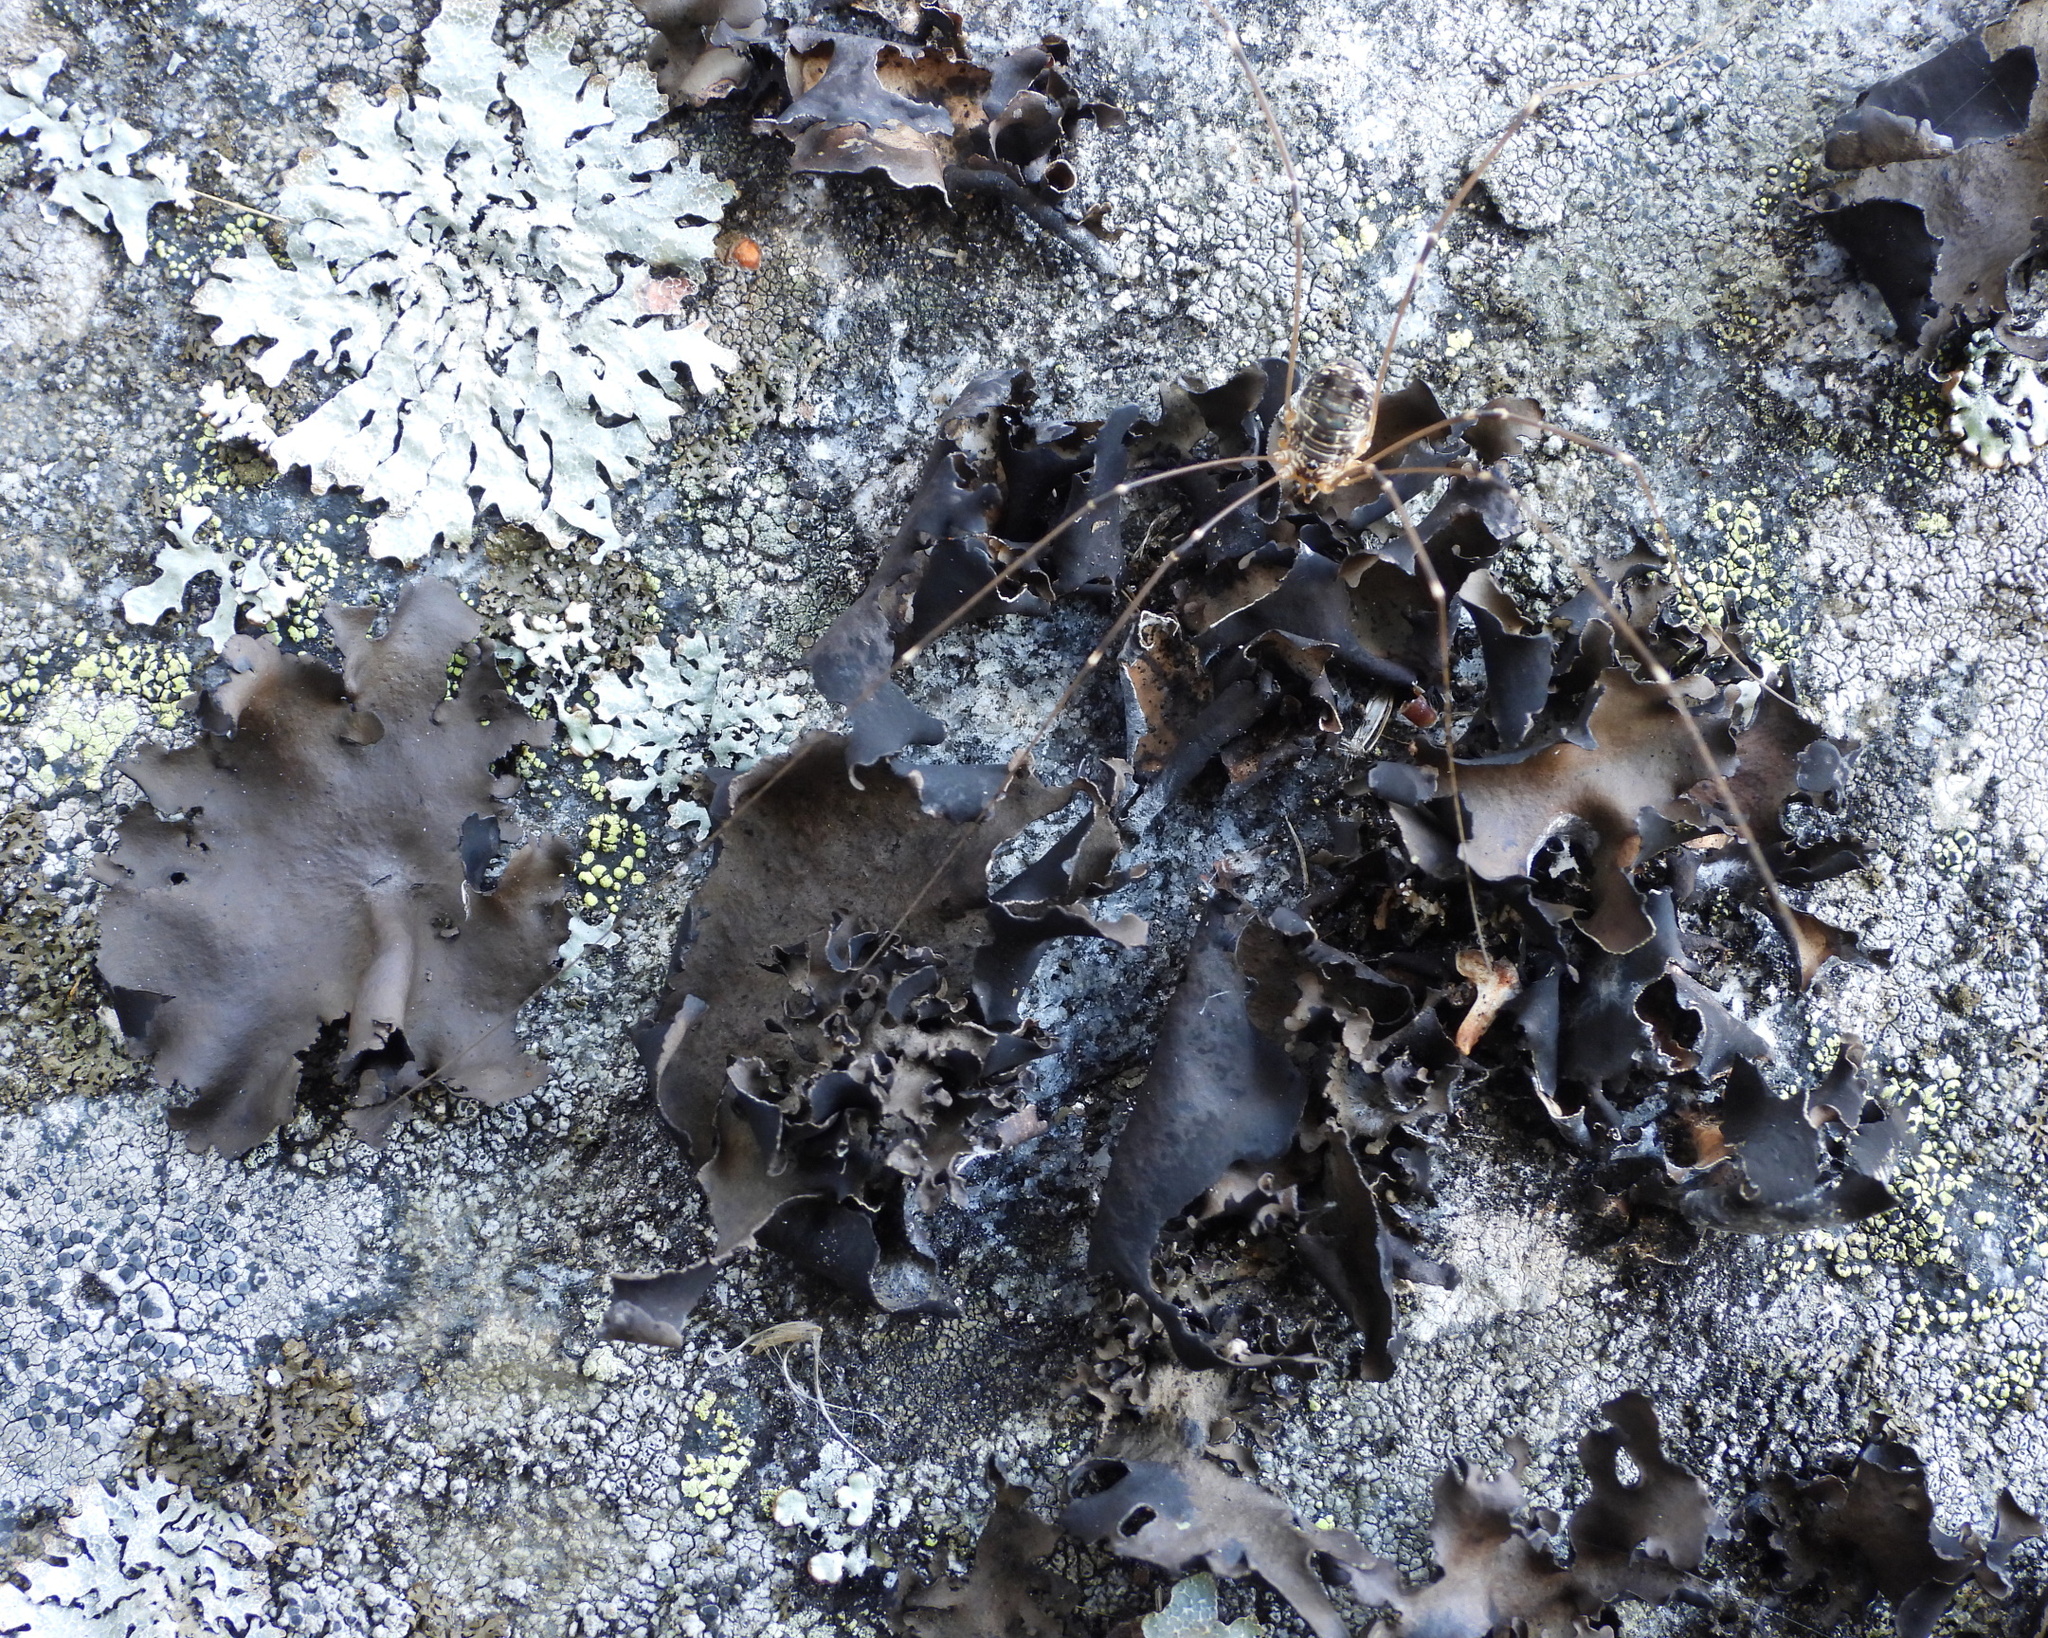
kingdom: Fungi
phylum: Ascomycota
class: Lecanoromycetes
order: Umbilicariales
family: Umbilicariaceae
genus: Umbilicaria
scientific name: Umbilicaria polyphylla
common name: Petalled rocktripe lichen
